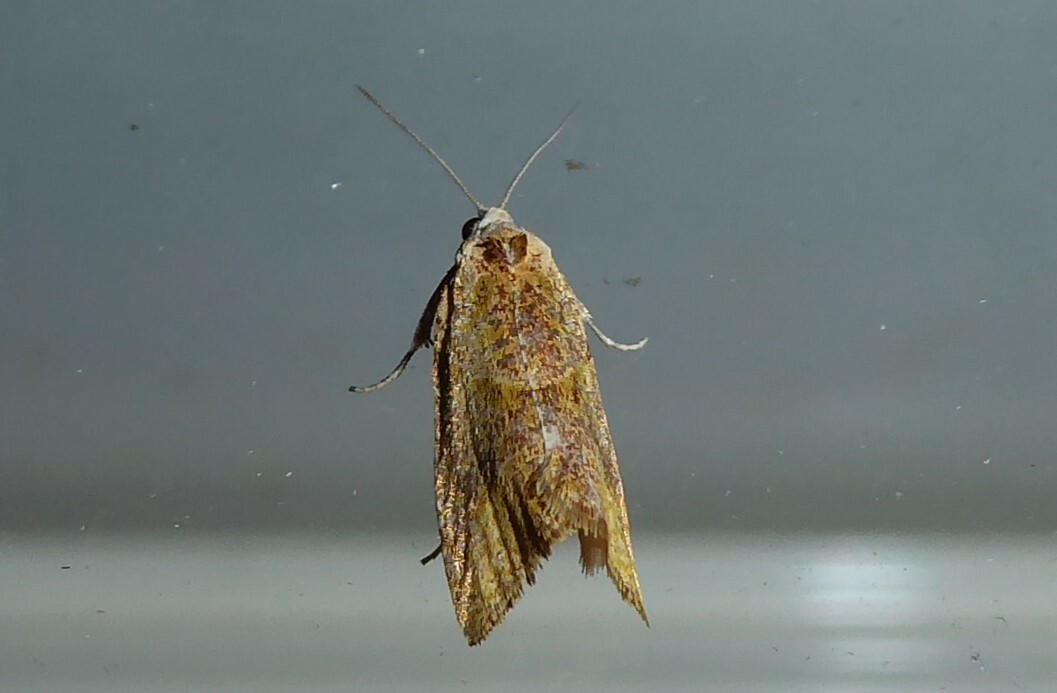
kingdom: Animalia
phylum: Arthropoda
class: Insecta
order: Lepidoptera
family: Tortricidae
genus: Pyrgotis
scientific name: Pyrgotis plagiatana
